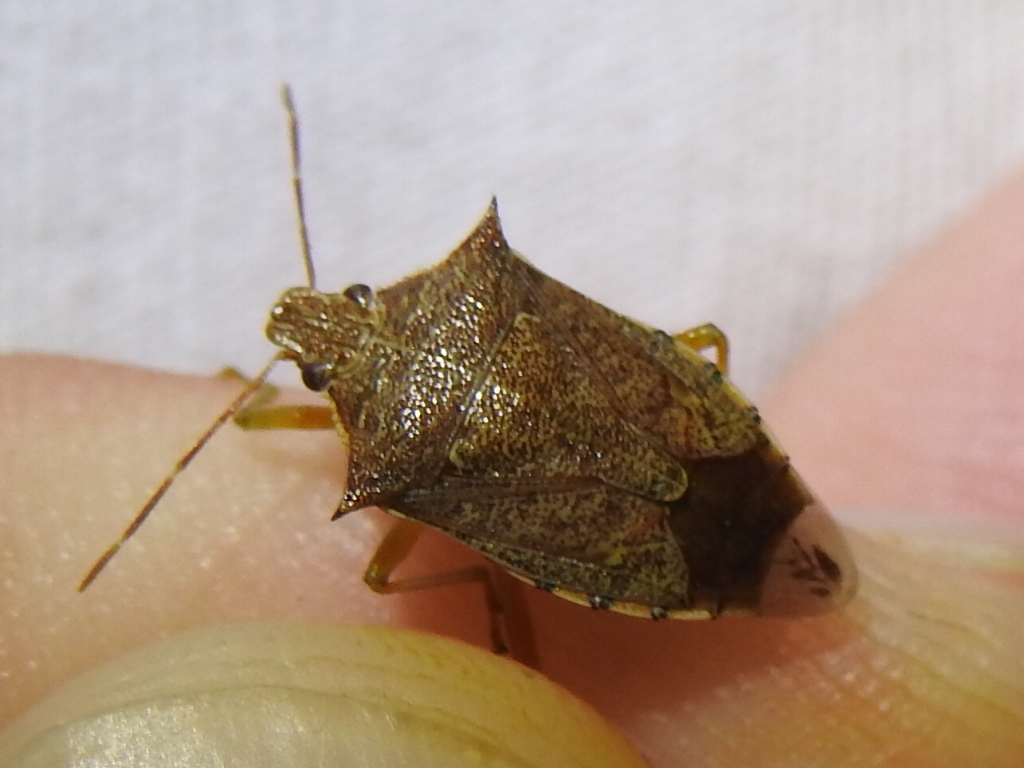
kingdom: Animalia
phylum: Arthropoda
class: Insecta
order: Hemiptera
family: Pentatomidae
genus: Podisus
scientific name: Podisus maculiventris
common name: Spined soldier bug
